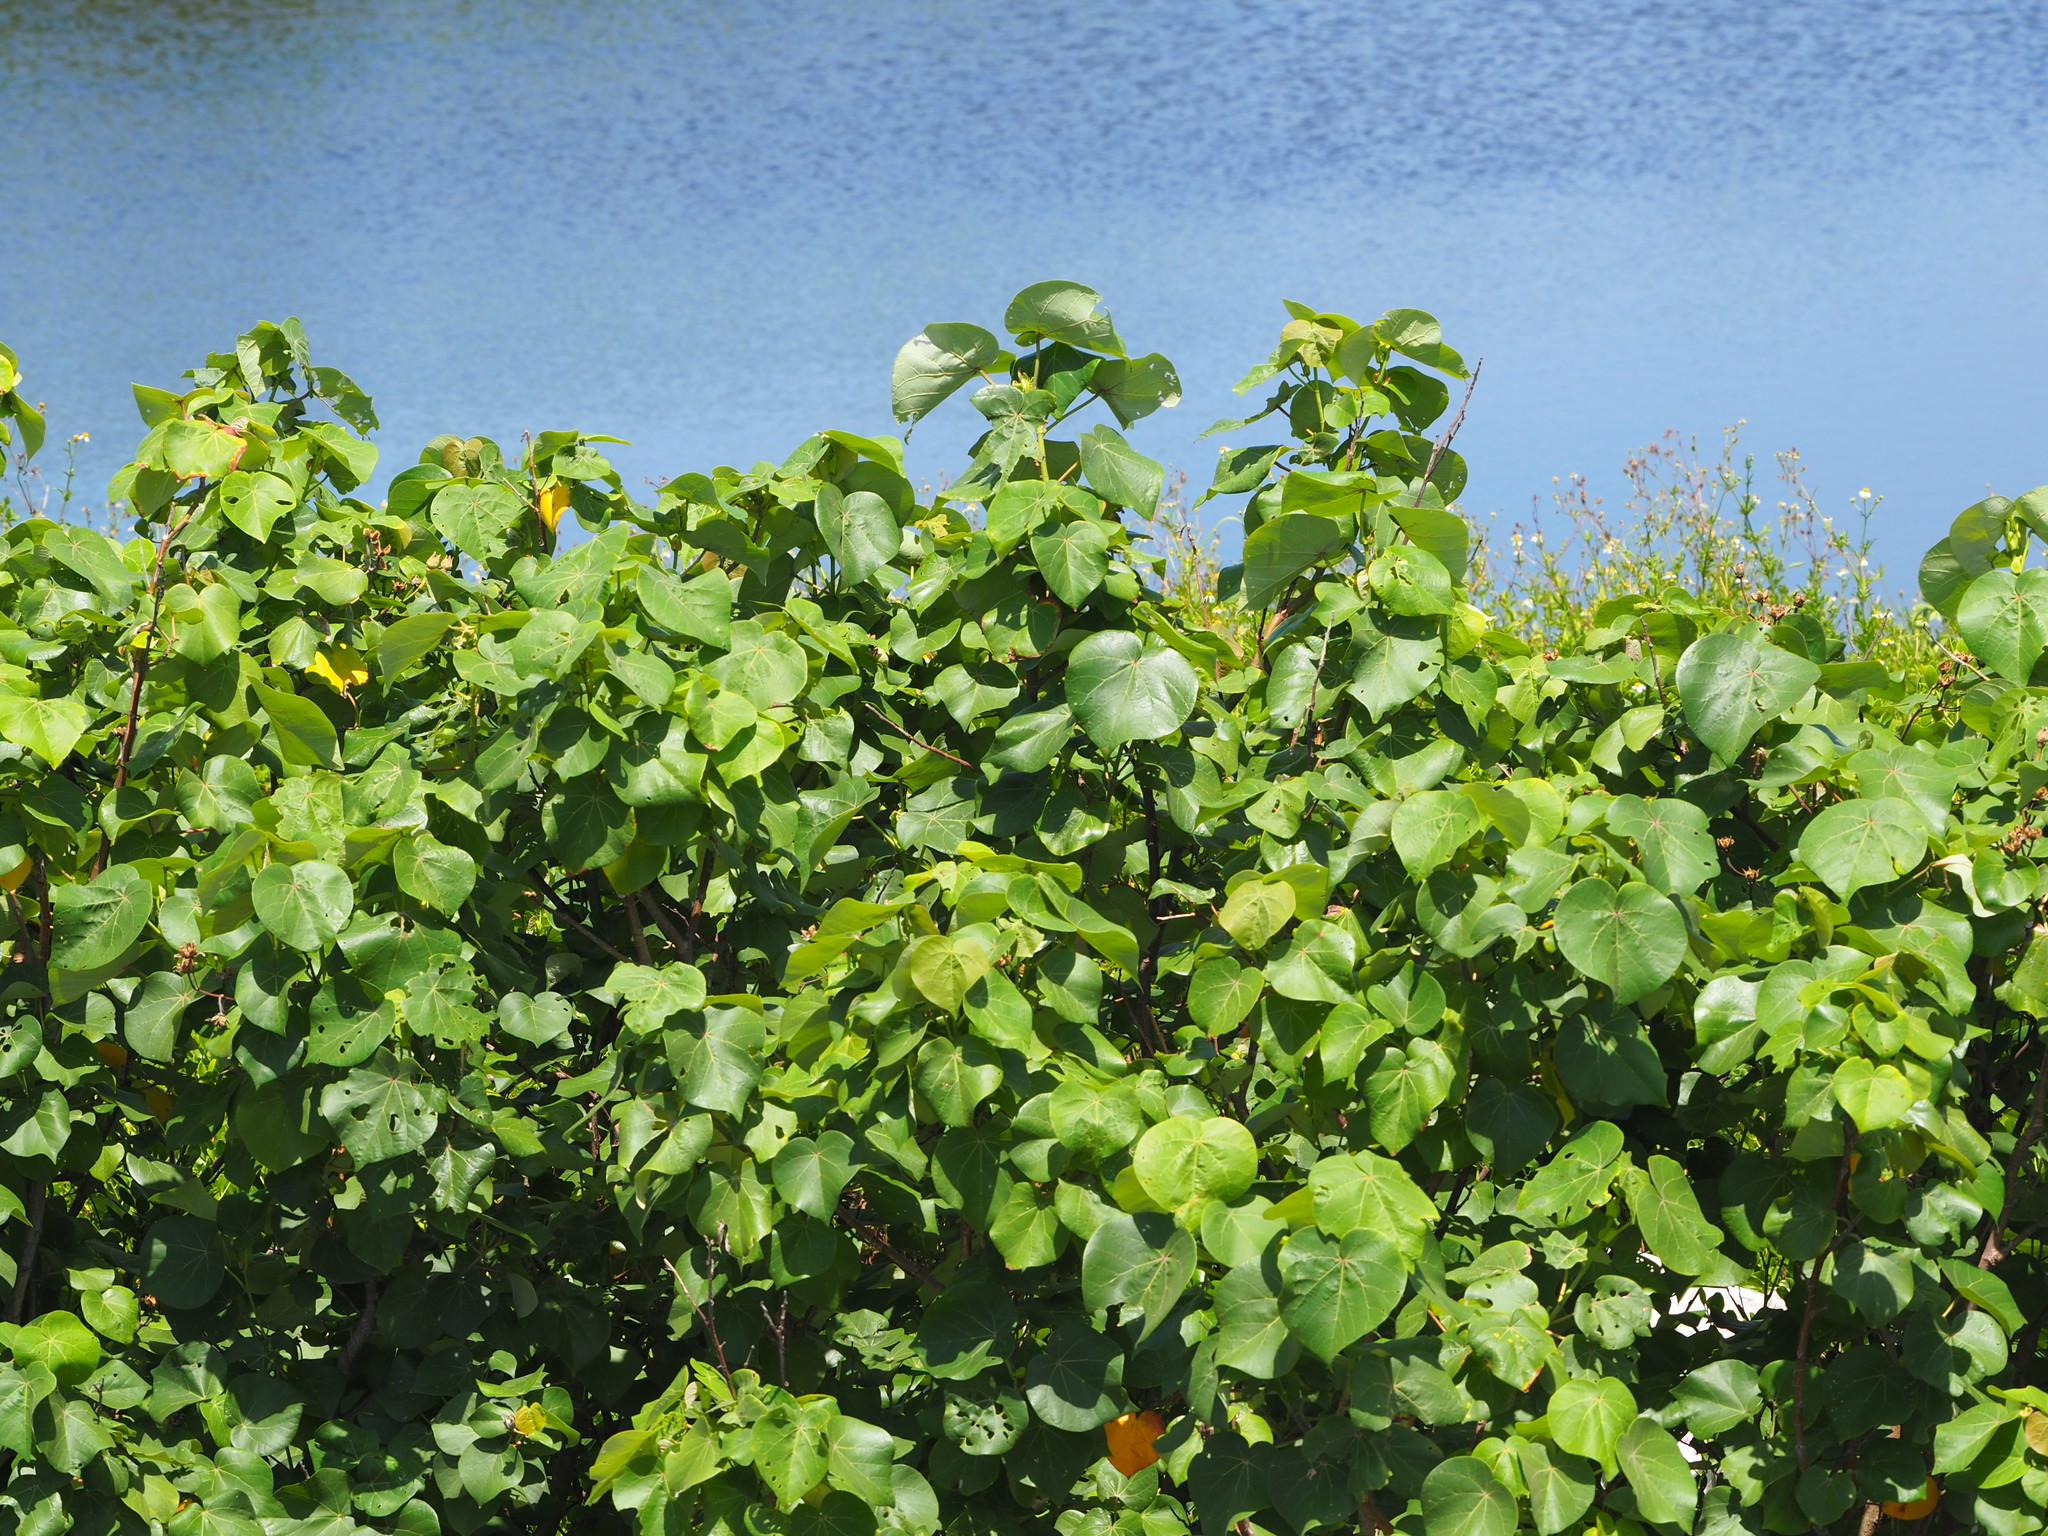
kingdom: Plantae
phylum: Tracheophyta
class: Magnoliopsida
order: Malvales
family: Malvaceae
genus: Talipariti
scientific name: Talipariti tiliaceum
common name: Sea hibiscus
